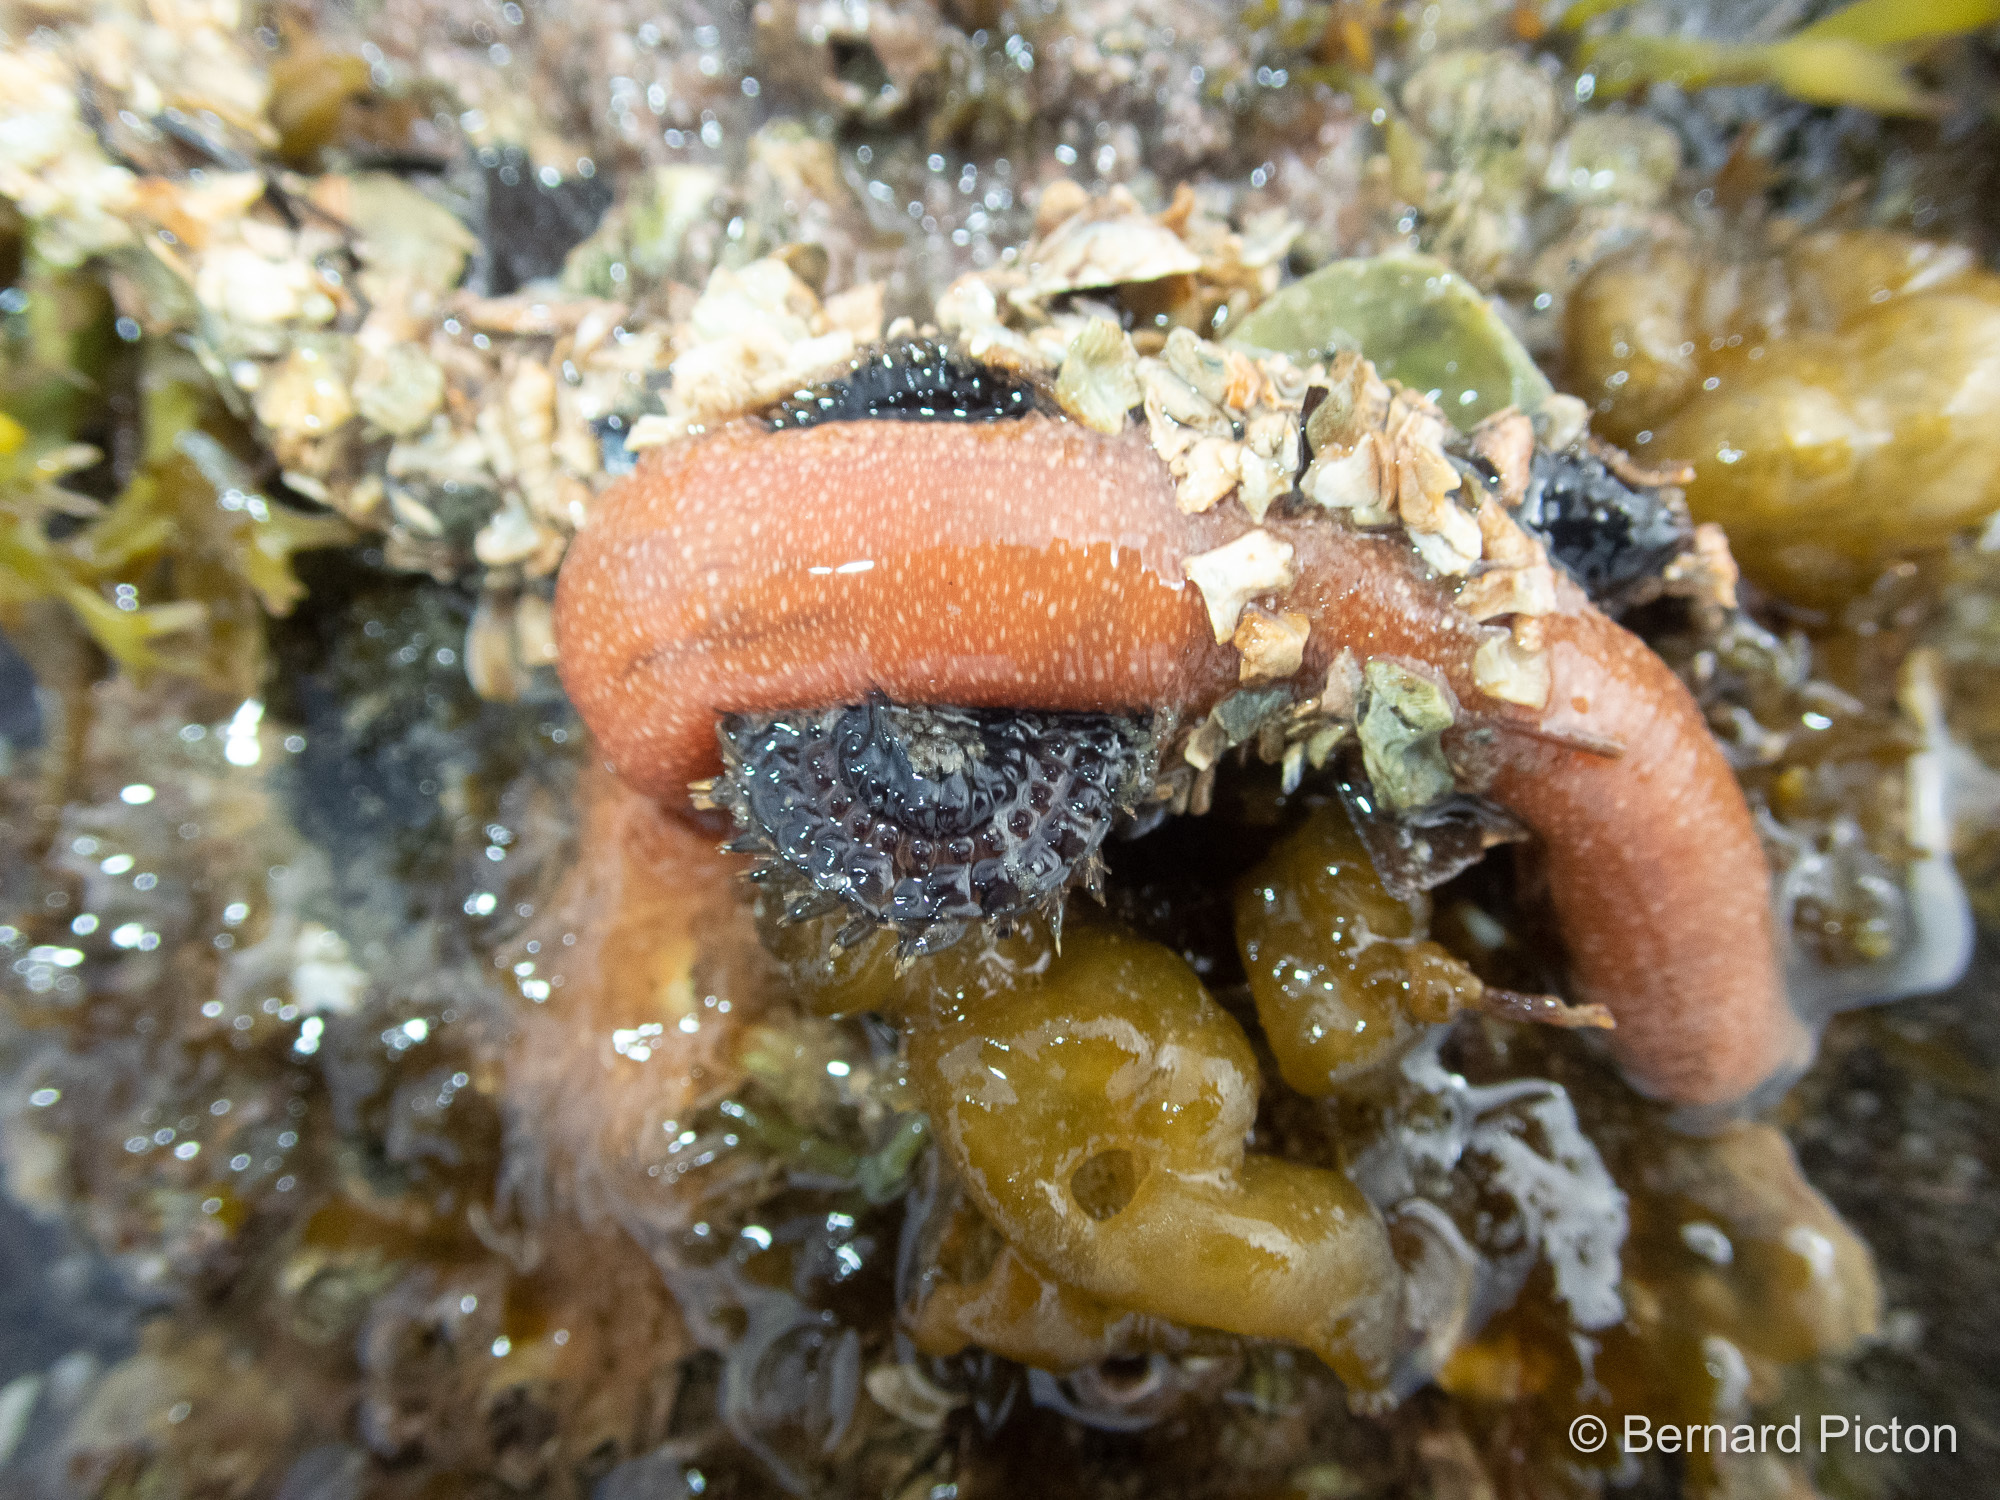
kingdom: Animalia
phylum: Annelida
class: Polychaeta
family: Terebellidae
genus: Eupolymnia
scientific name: Eupolymnia nebulosa
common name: Strawberry worm
